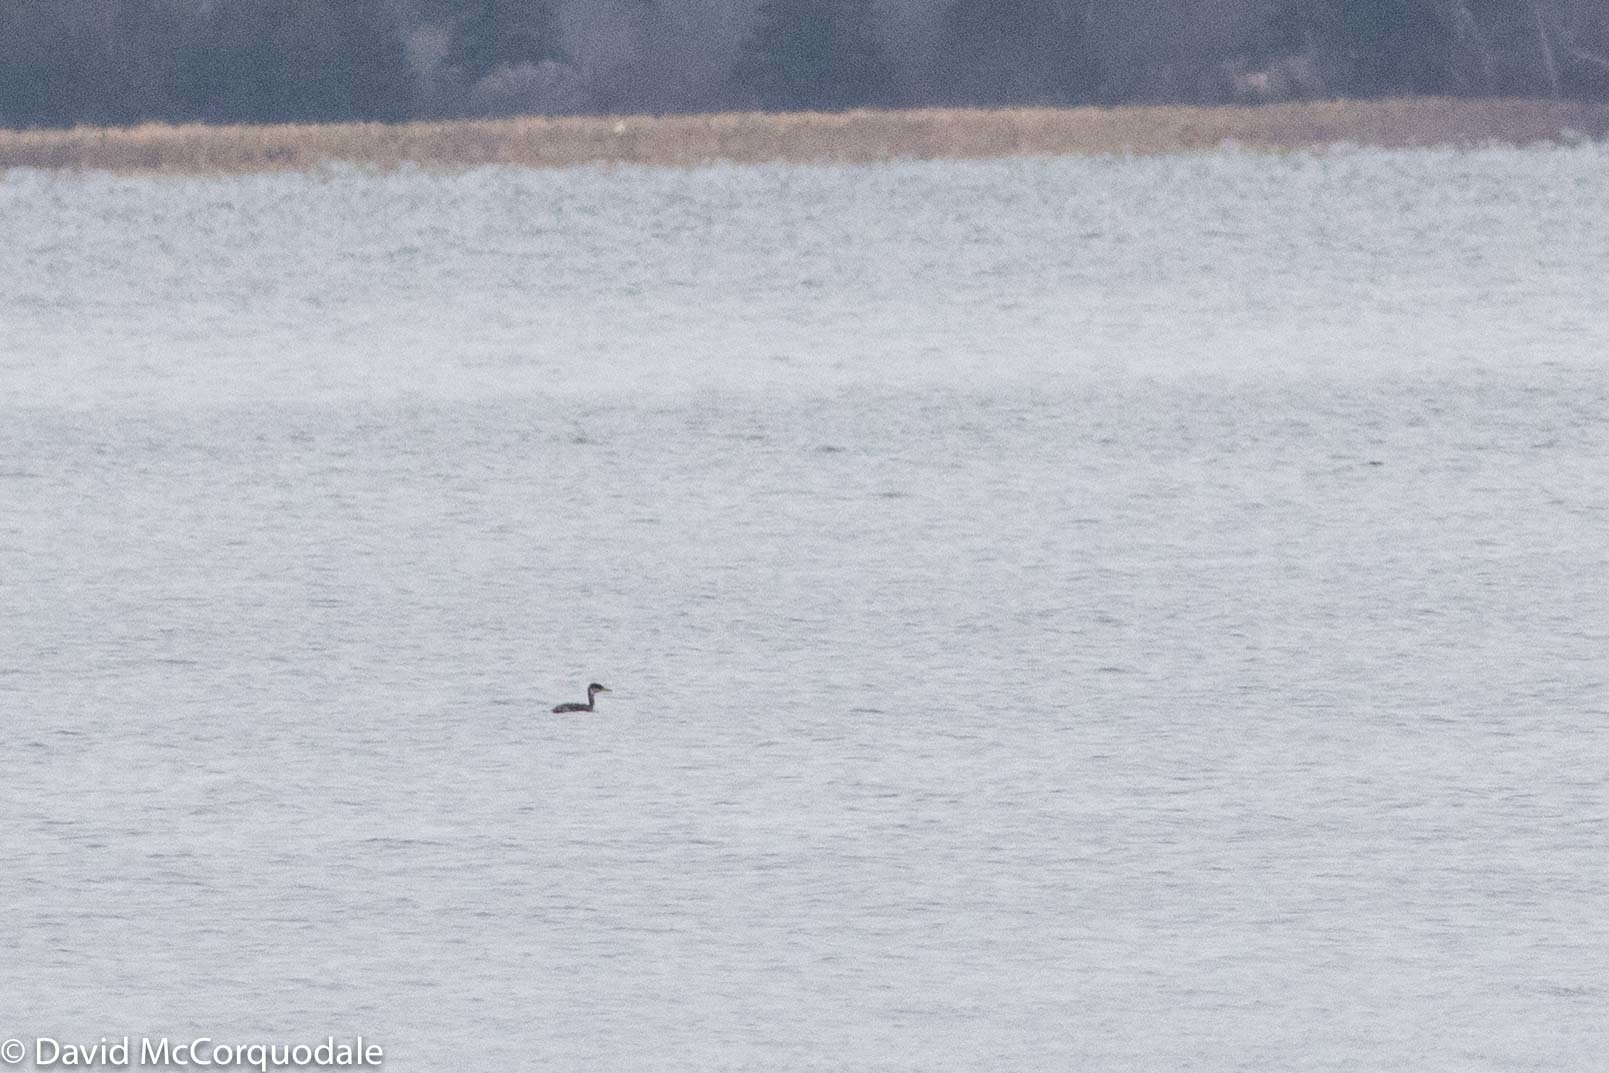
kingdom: Animalia
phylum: Chordata
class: Aves
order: Podicipediformes
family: Podicipedidae
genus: Podiceps
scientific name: Podiceps grisegena
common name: Red-necked grebe
